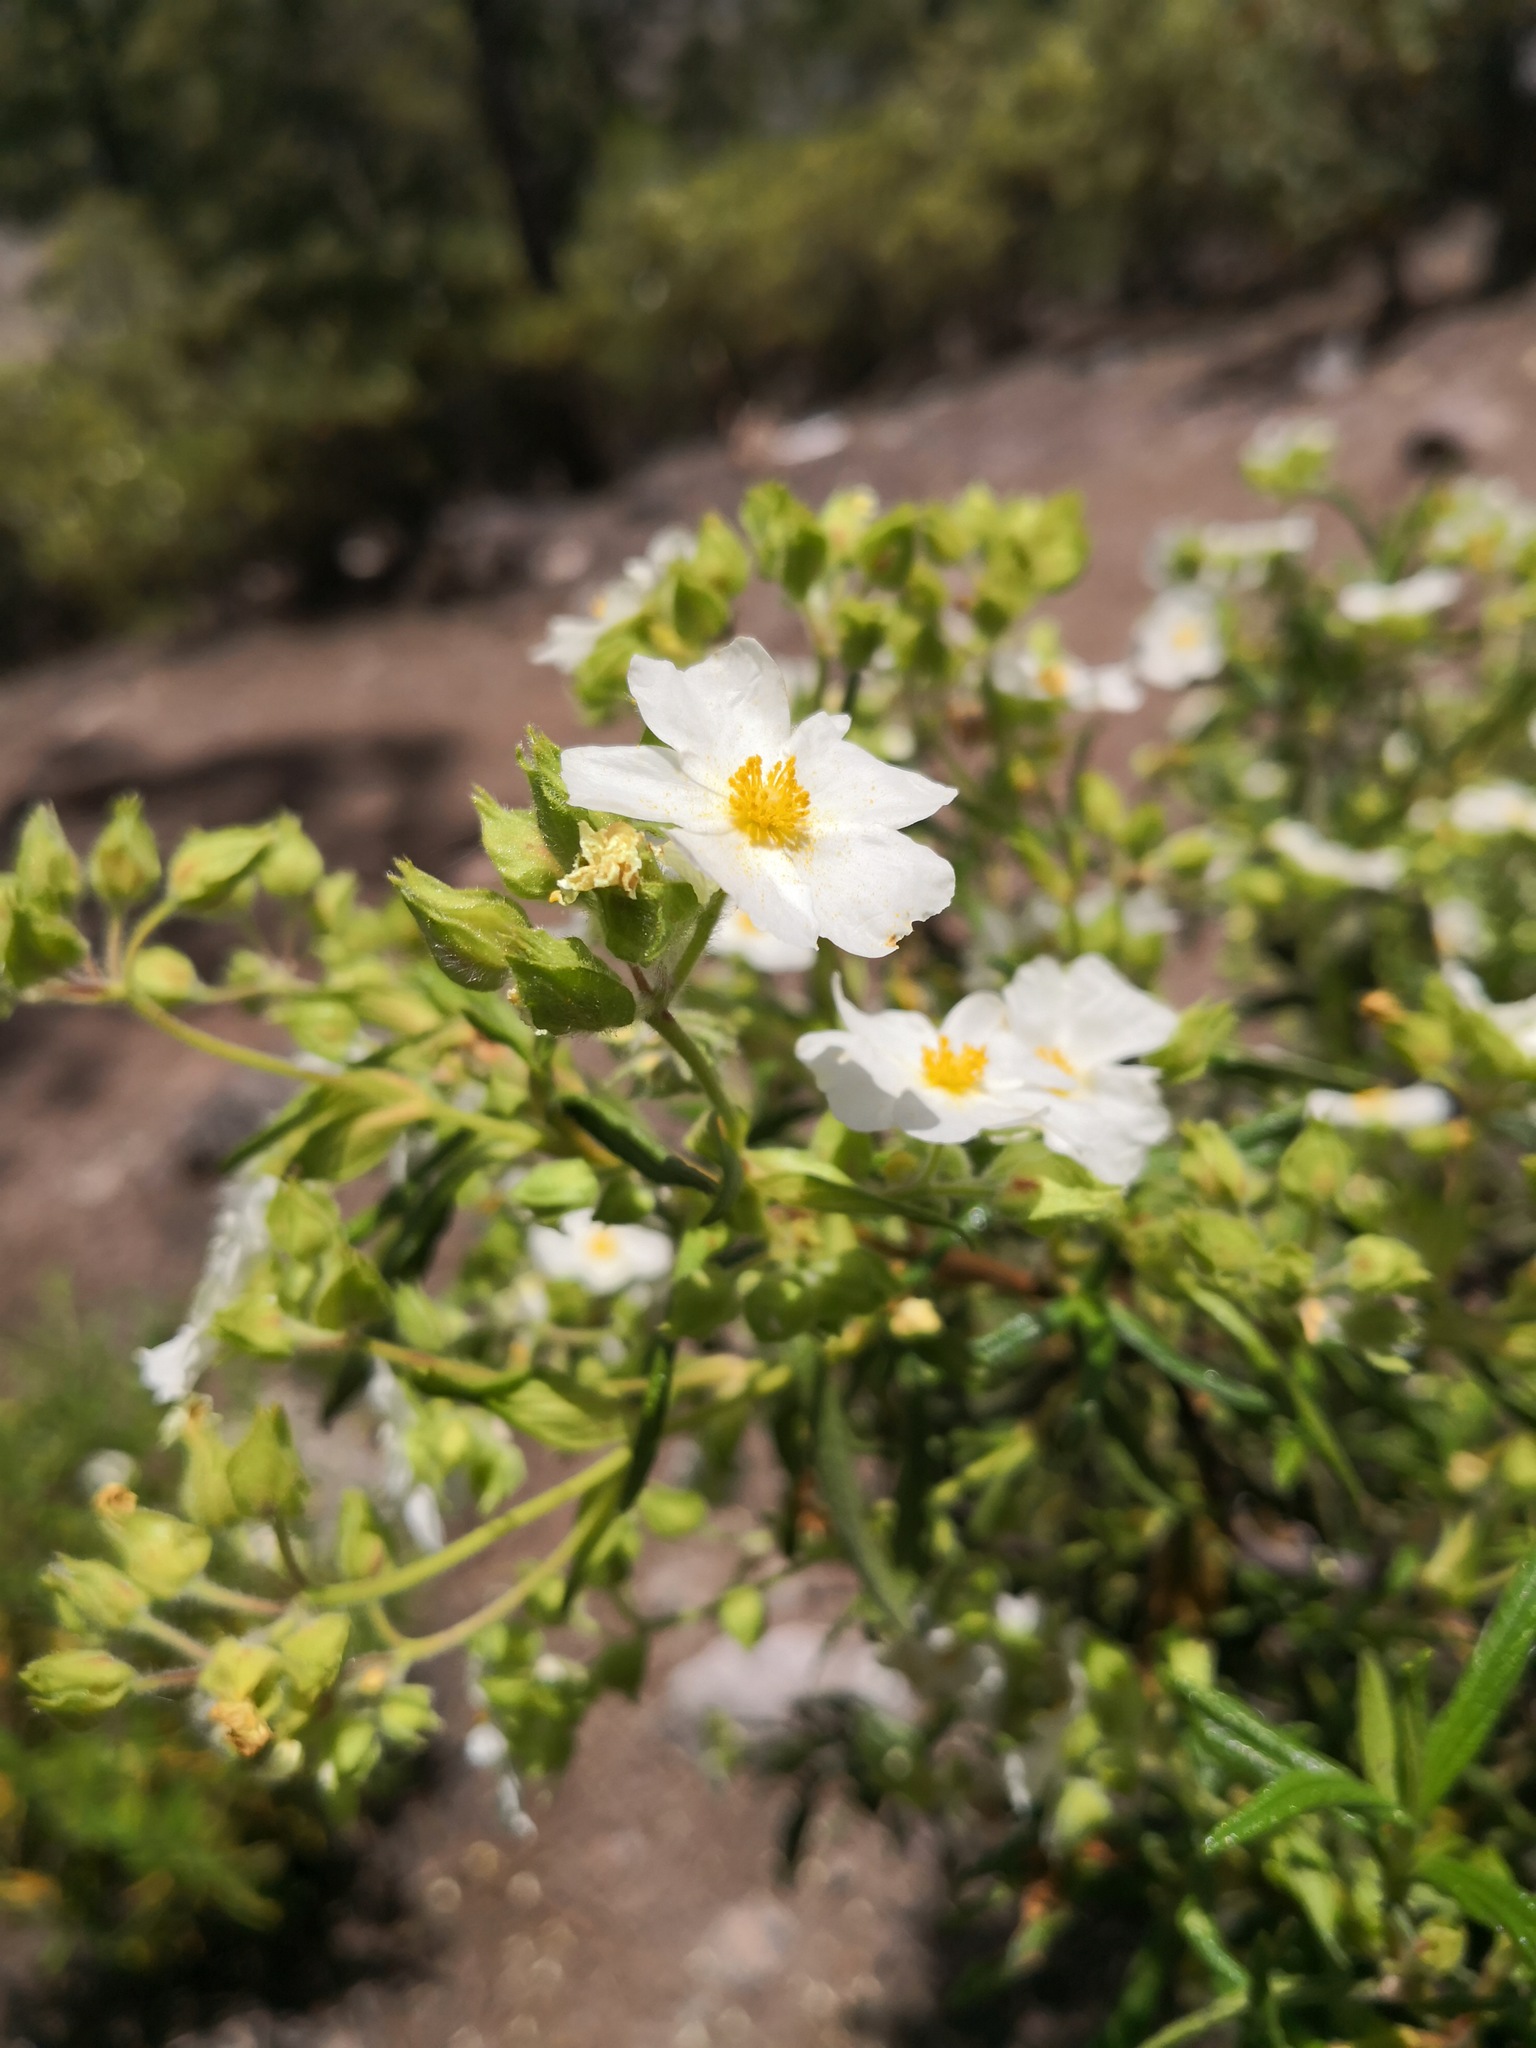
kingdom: Plantae
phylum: Tracheophyta
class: Magnoliopsida
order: Malvales
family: Cistaceae
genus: Cistus
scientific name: Cistus monspeliensis
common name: Montpelier cistus
